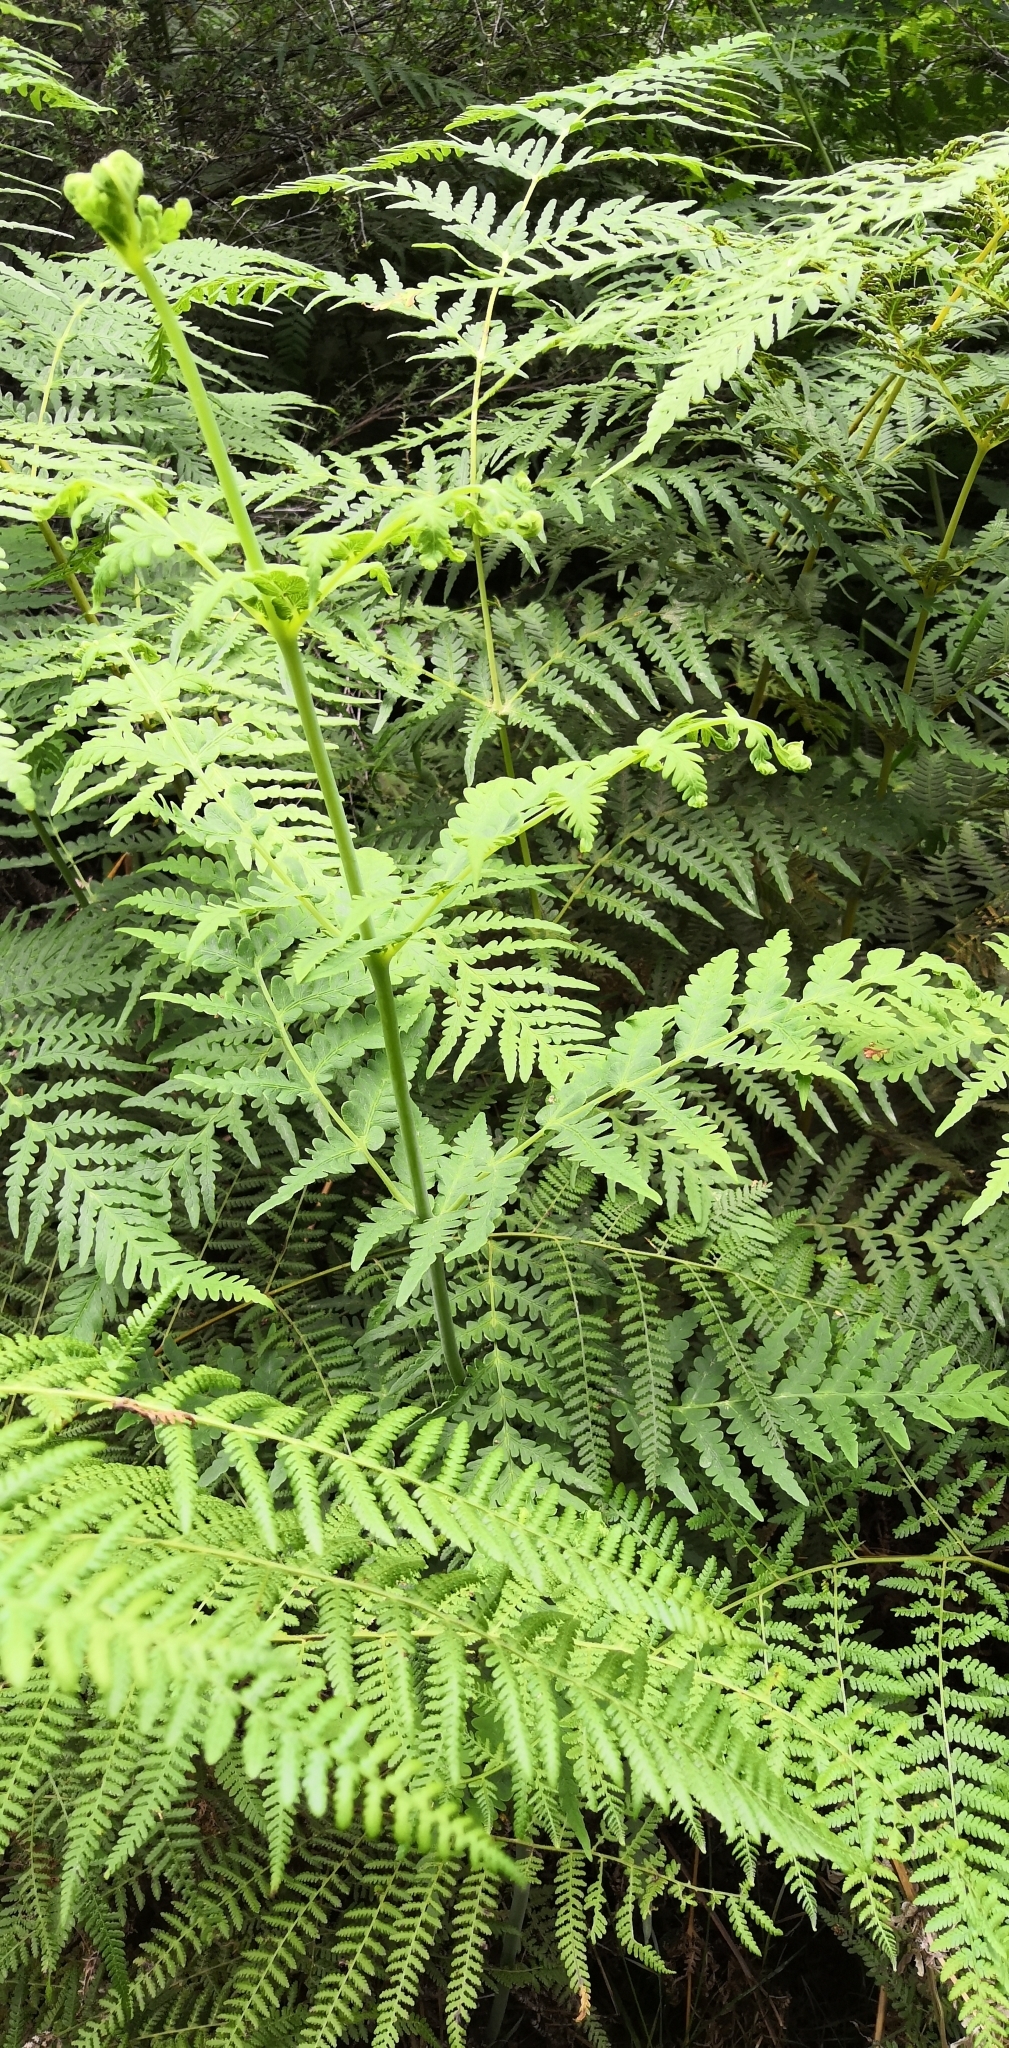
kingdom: Plantae
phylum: Tracheophyta
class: Polypodiopsida
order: Polypodiales
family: Dennstaedtiaceae
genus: Histiopteris
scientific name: Histiopteris incisa
